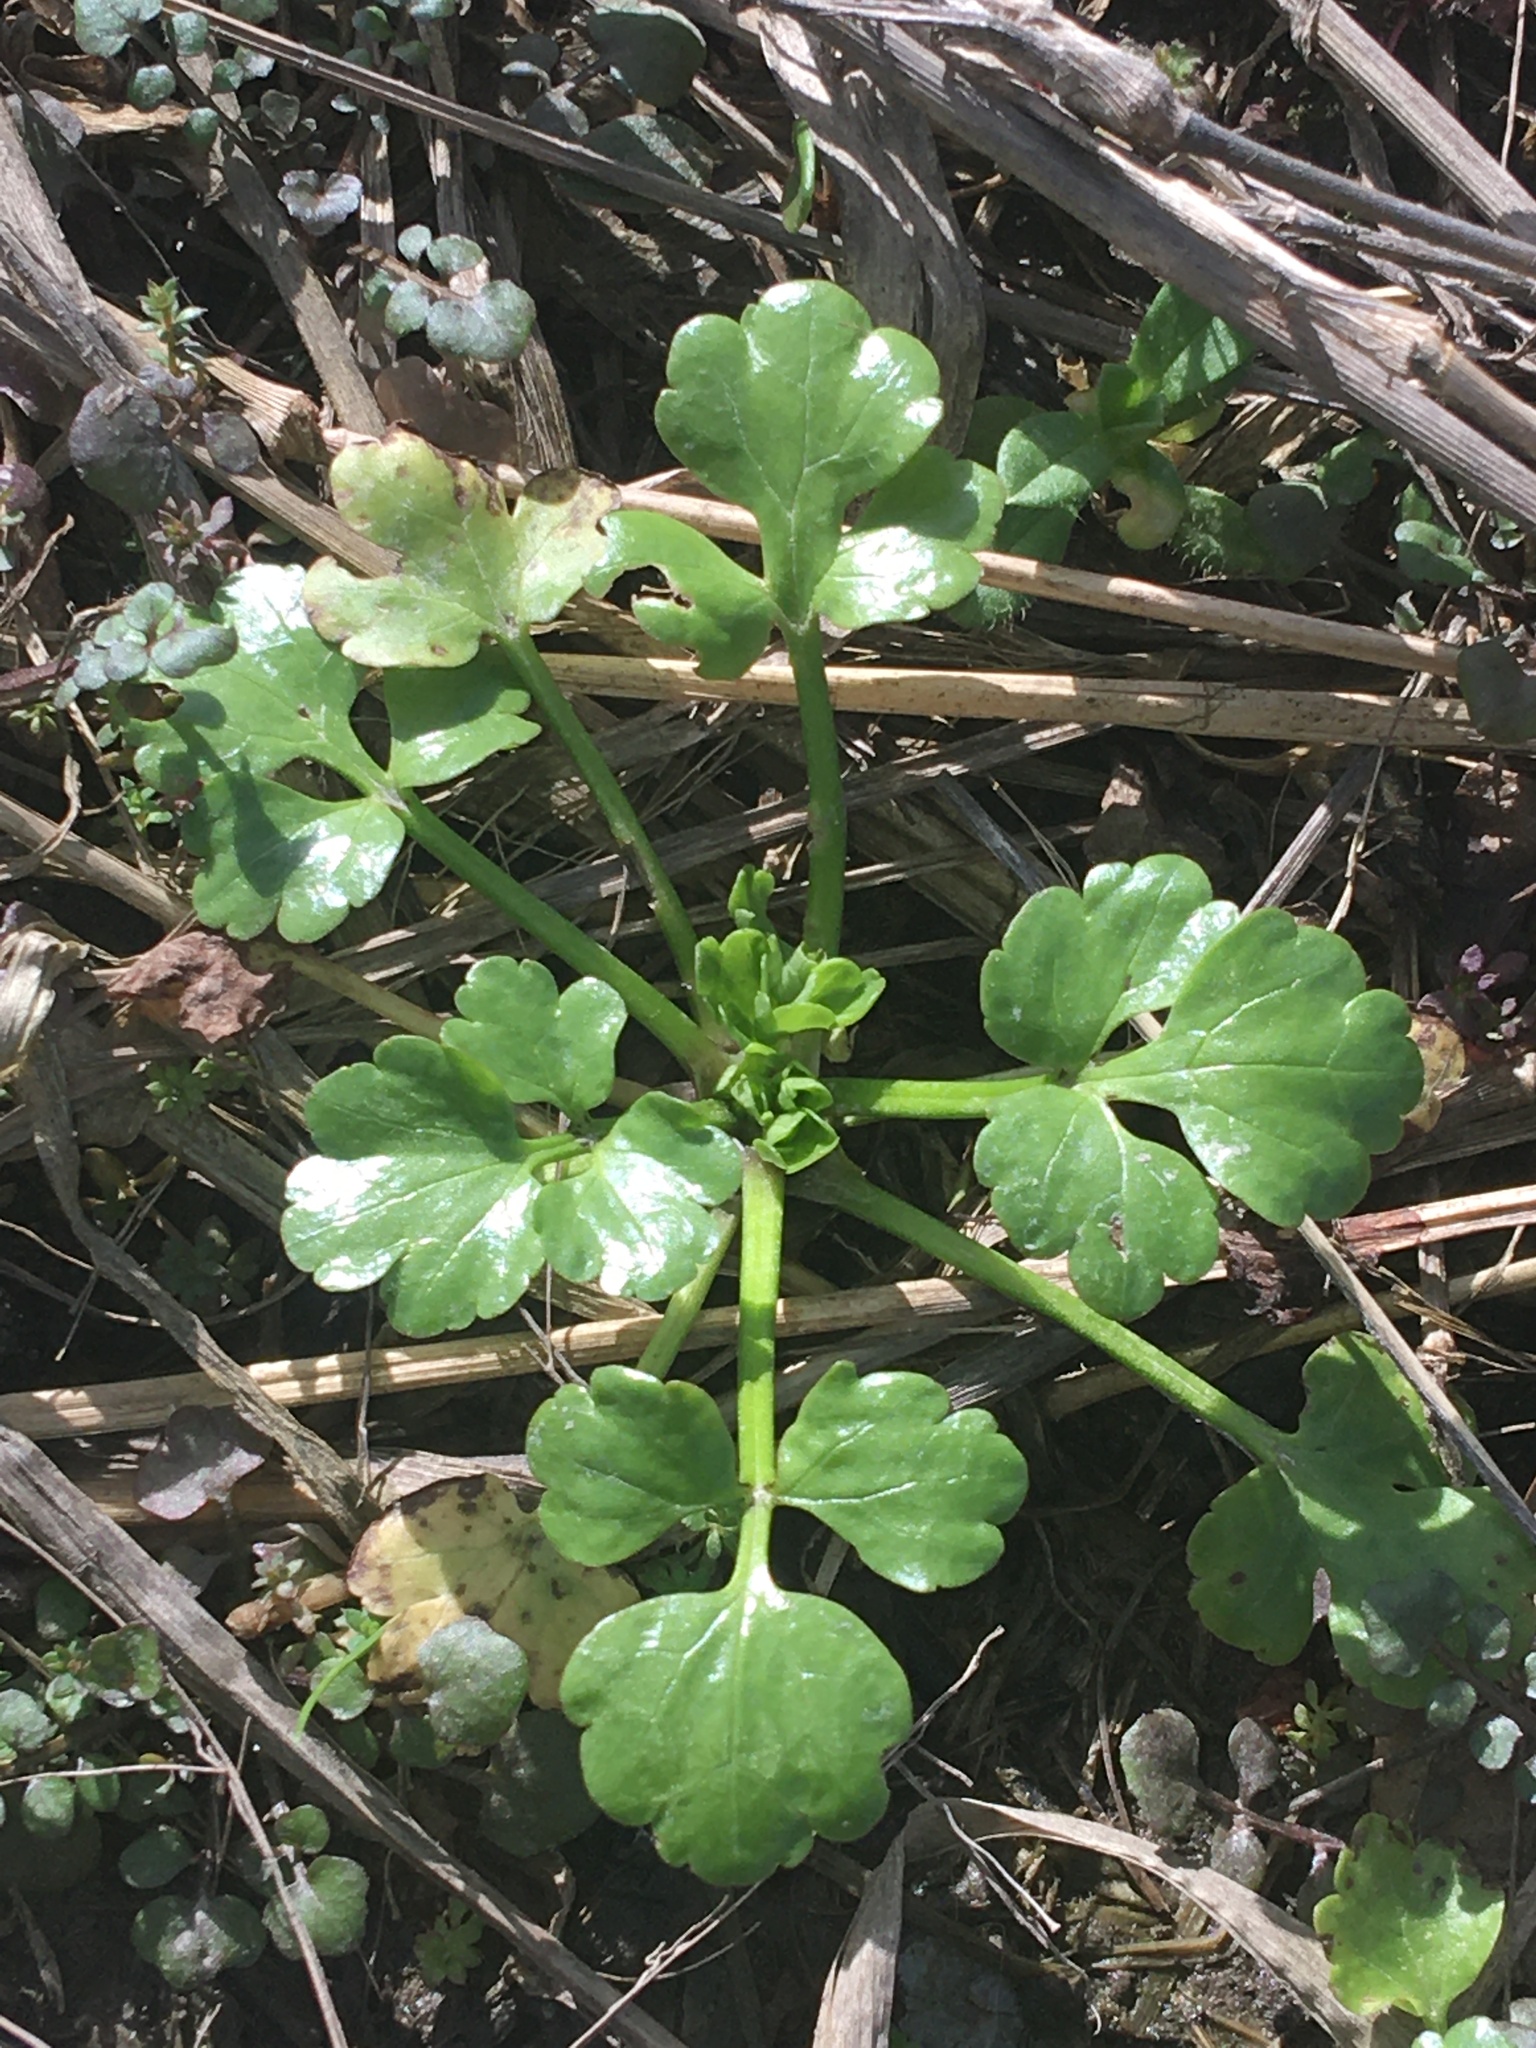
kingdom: Plantae
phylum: Tracheophyta
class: Magnoliopsida
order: Ranunculales
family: Ranunculaceae
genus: Ranunculus
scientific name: Ranunculus bulbosus
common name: Bulbous buttercup
